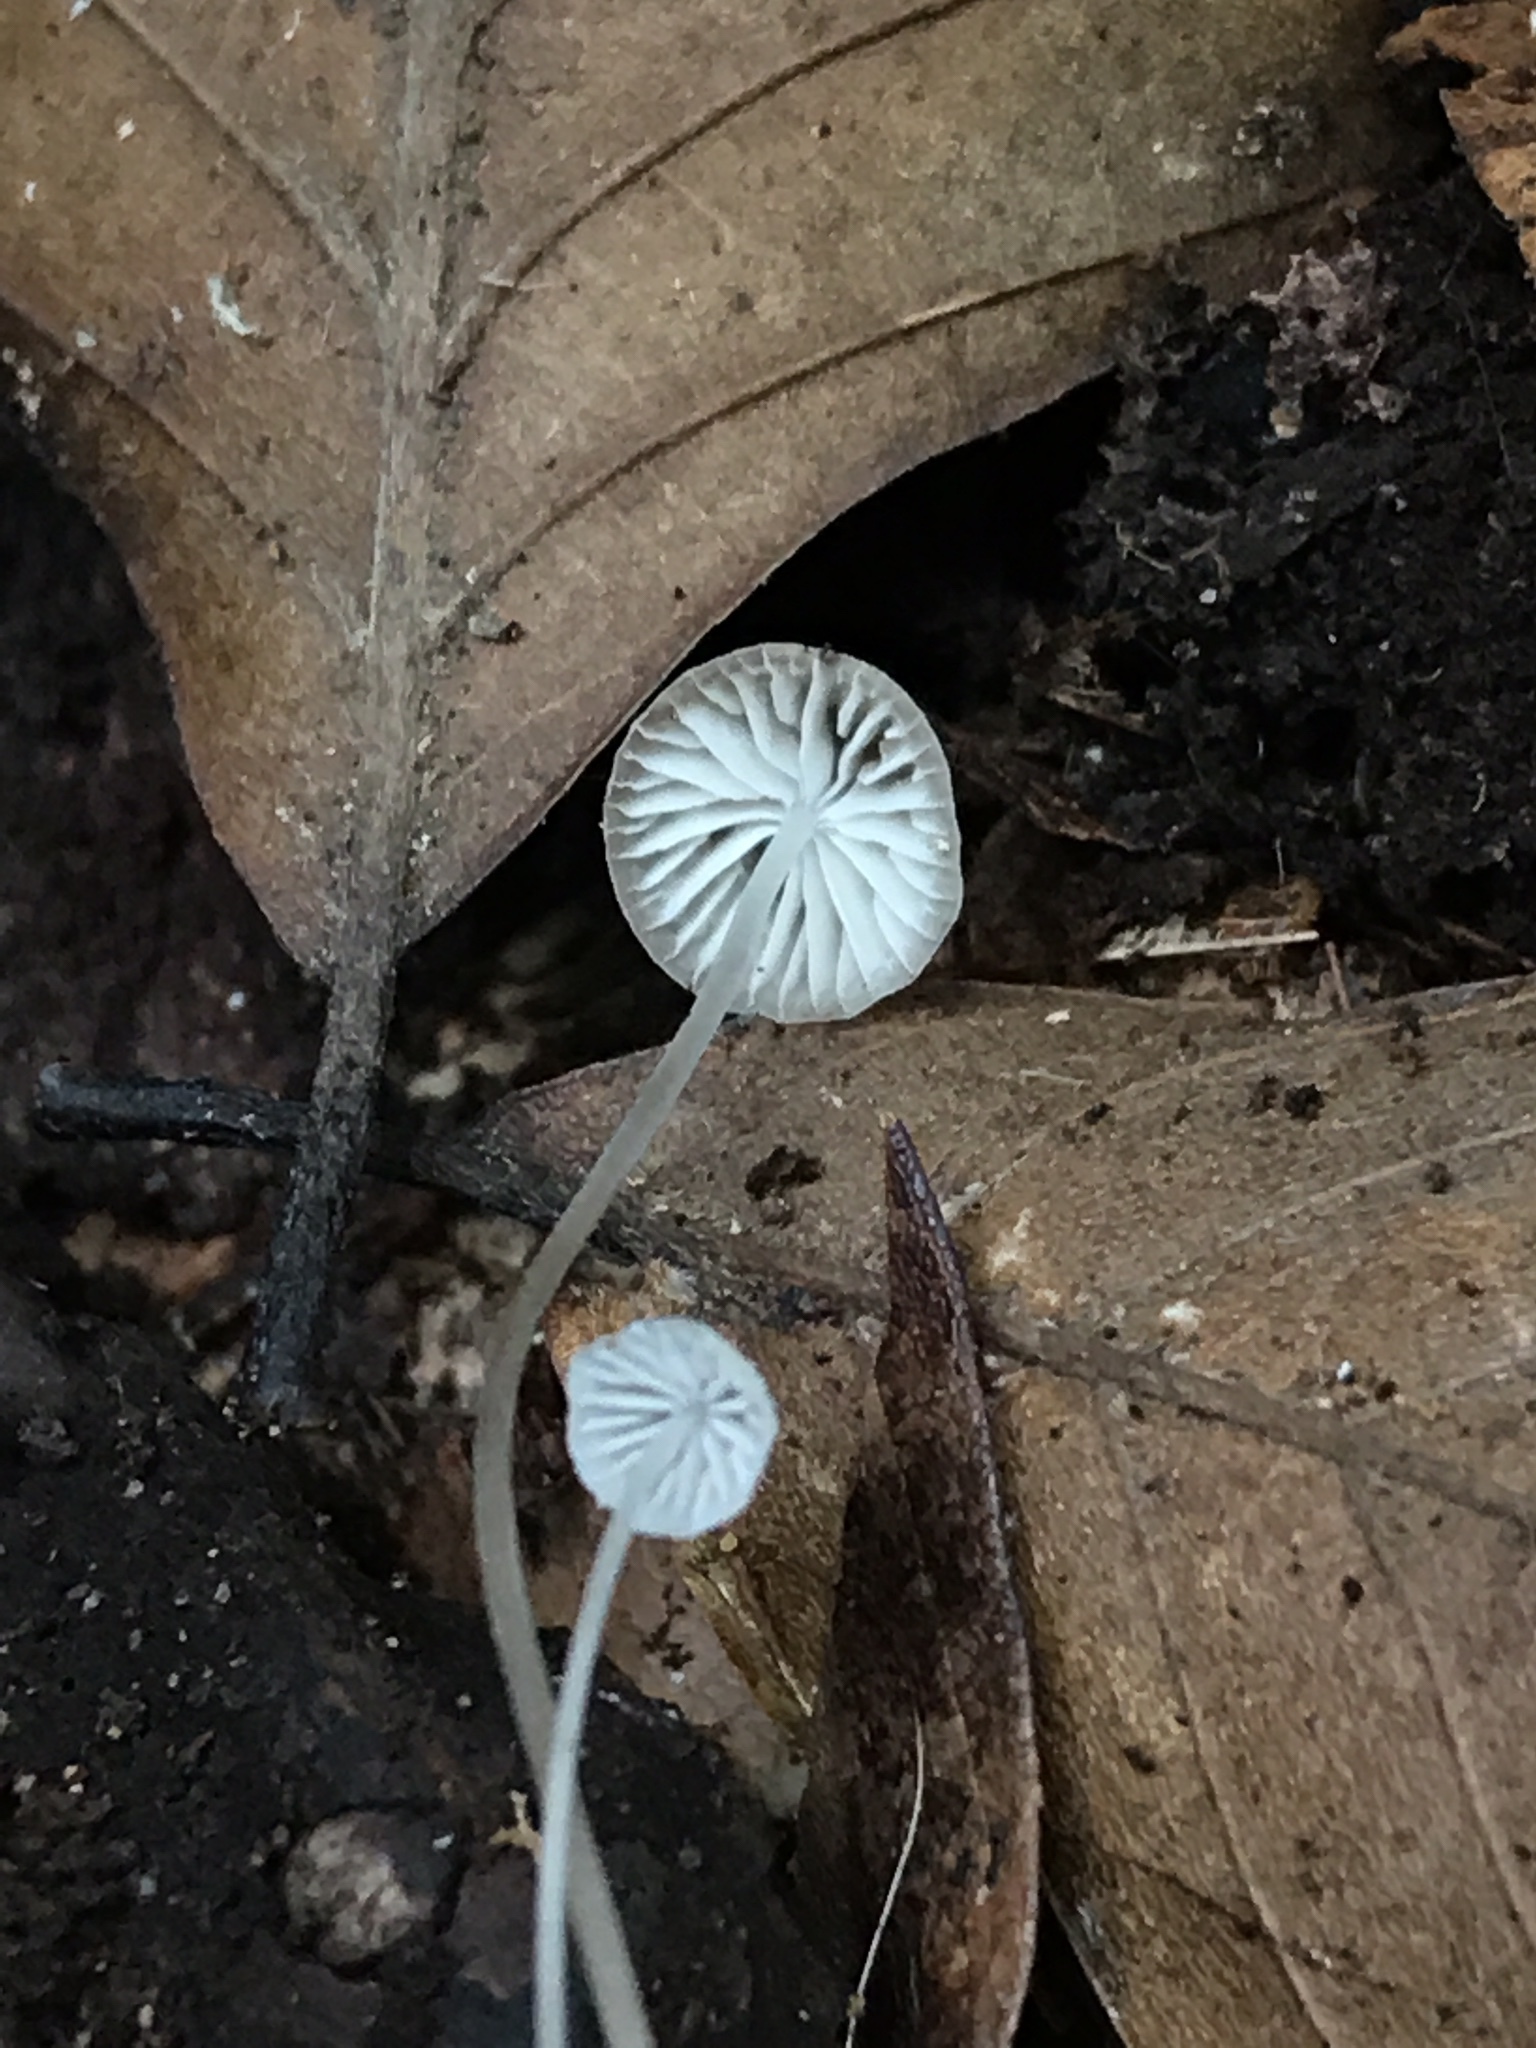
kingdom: Fungi
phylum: Basidiomycota
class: Agaricomycetes
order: Agaricales
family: Mycenaceae
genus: Mycena
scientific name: Mycena filopes
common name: Iodine bonnet
